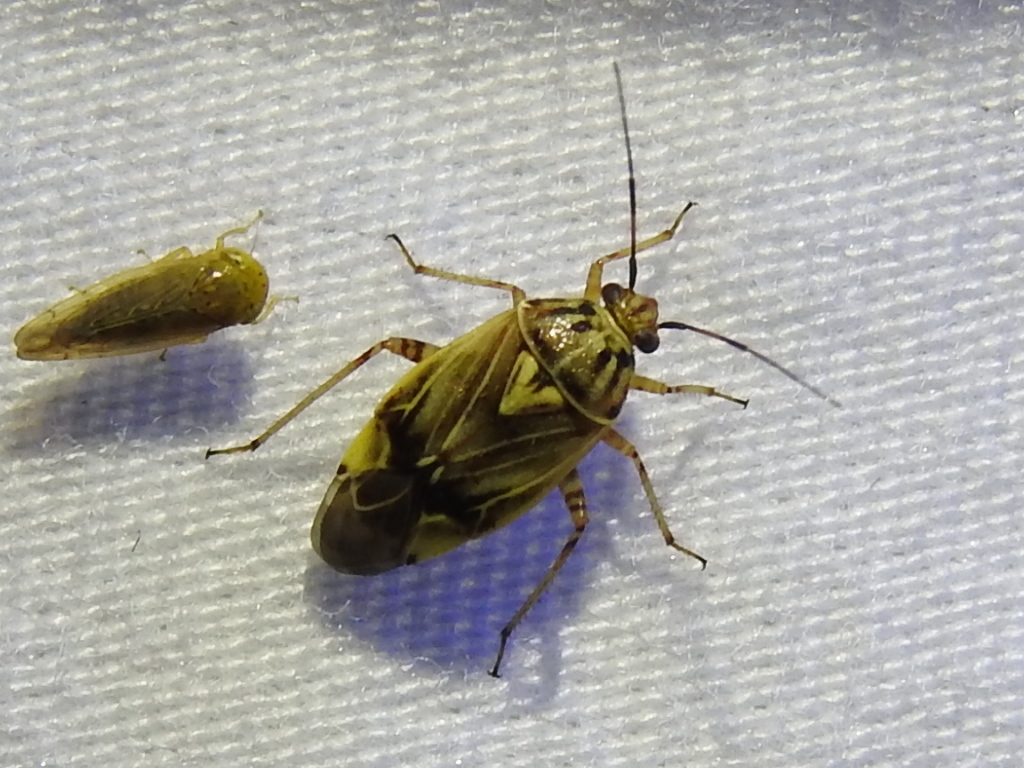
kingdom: Animalia
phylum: Arthropoda
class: Insecta
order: Hemiptera
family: Miridae
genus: Lygus
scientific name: Lygus lineolaris
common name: North american tarnished plant bug
